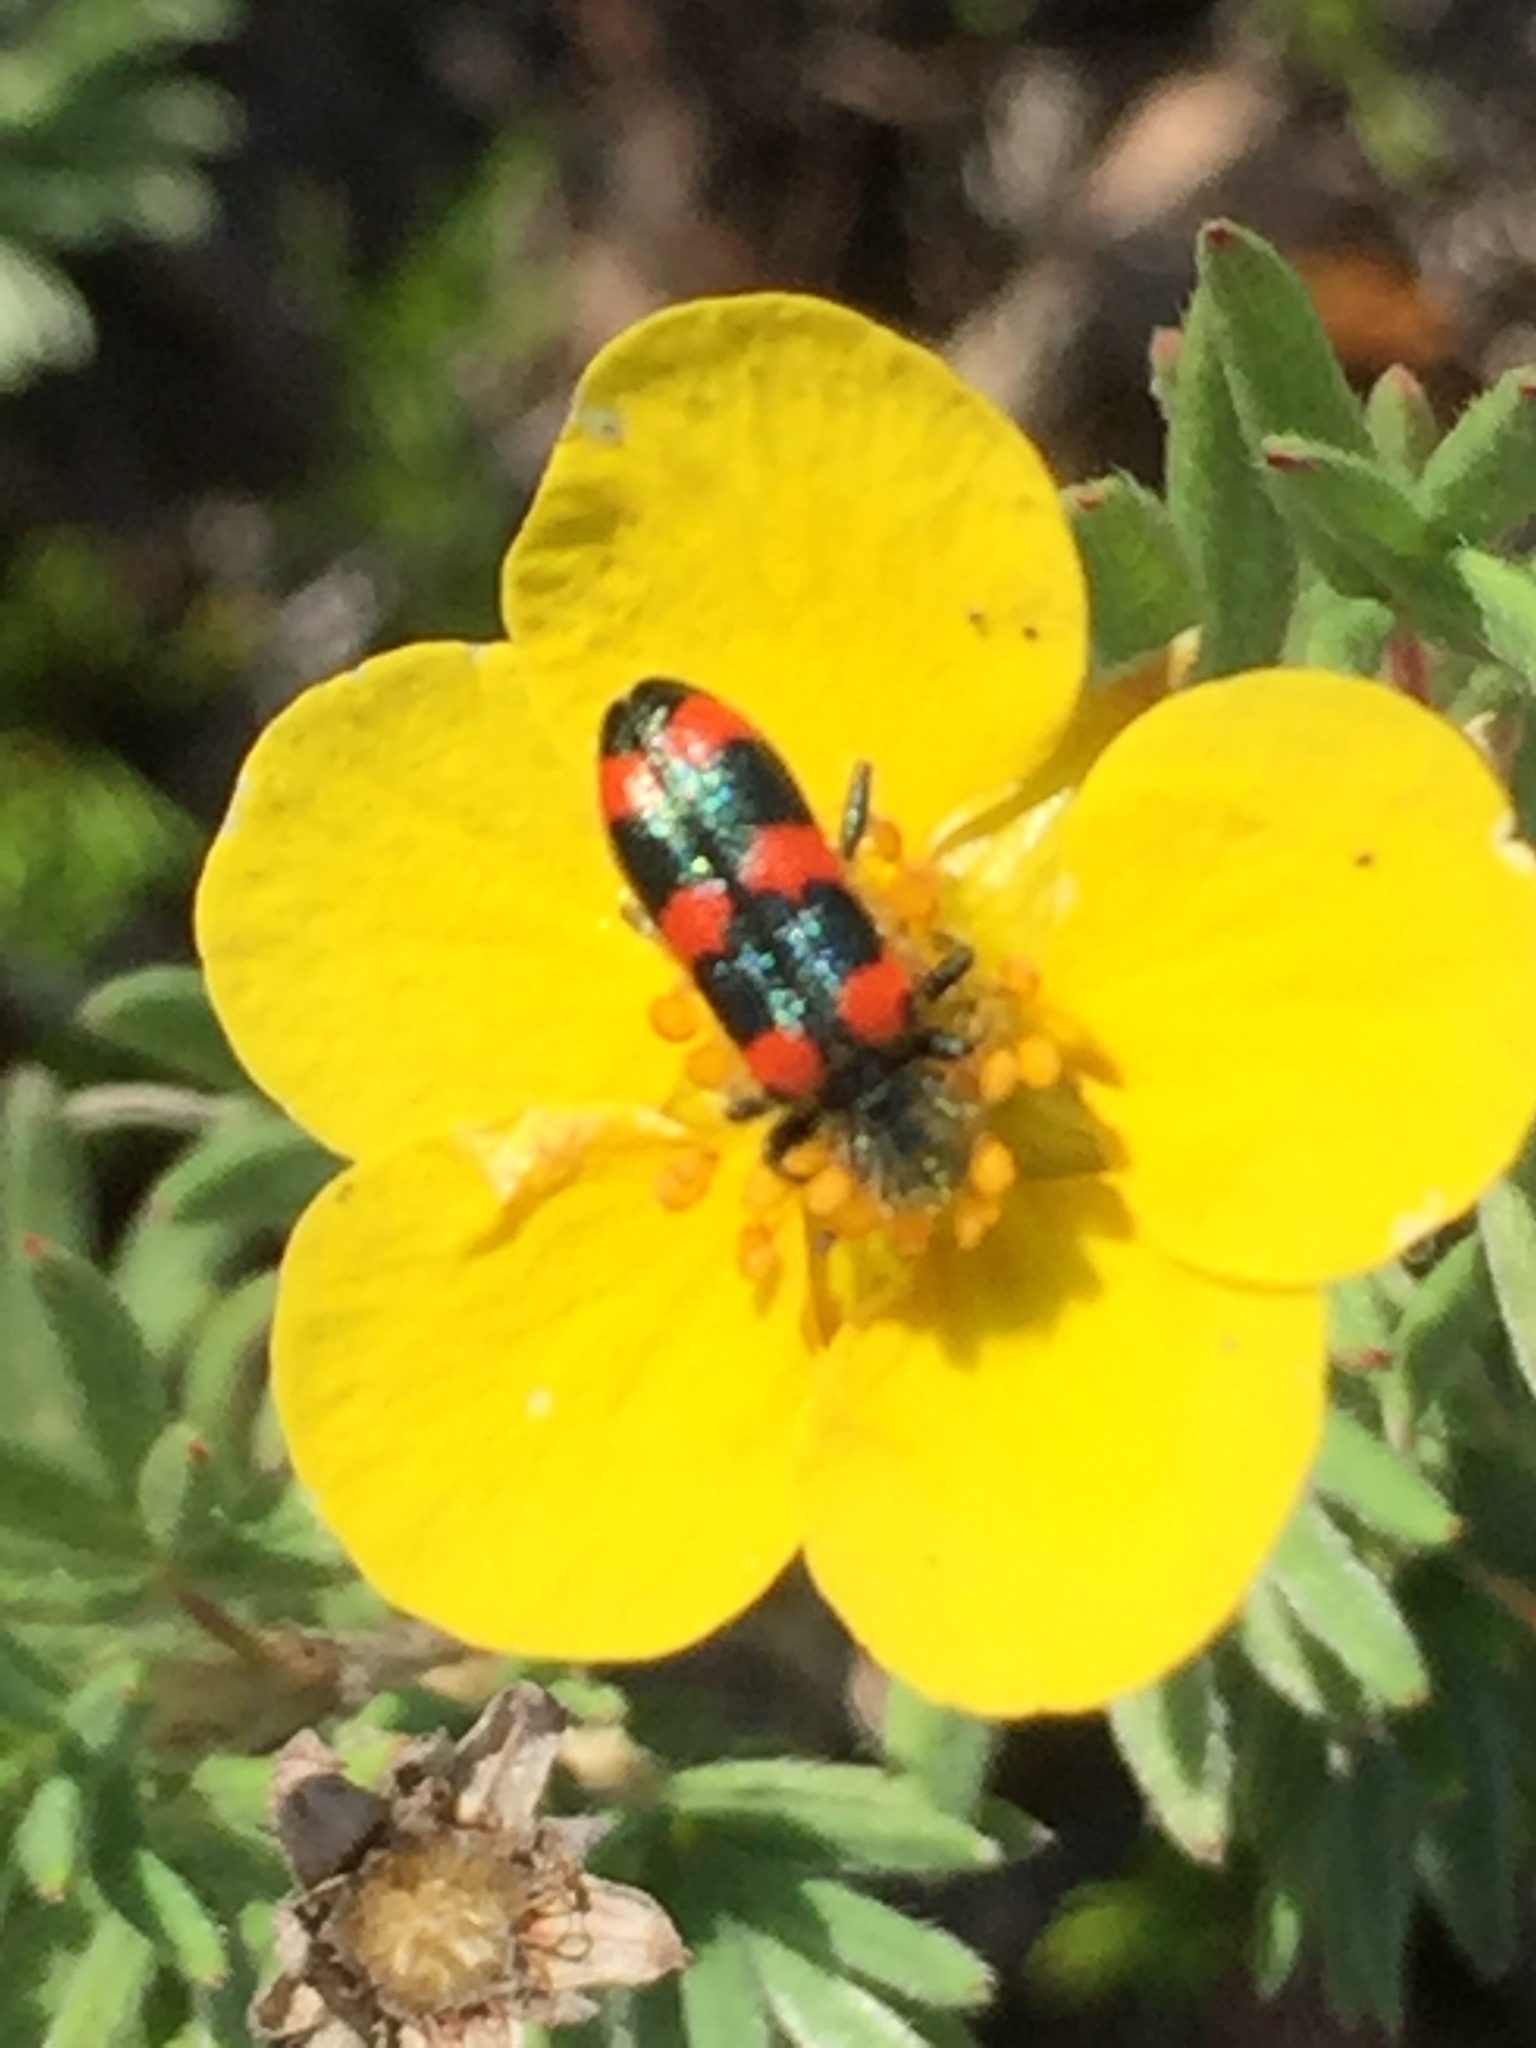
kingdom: Animalia
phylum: Arthropoda
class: Insecta
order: Coleoptera
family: Cleridae
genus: Trichodes
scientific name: Trichodes nutalli
